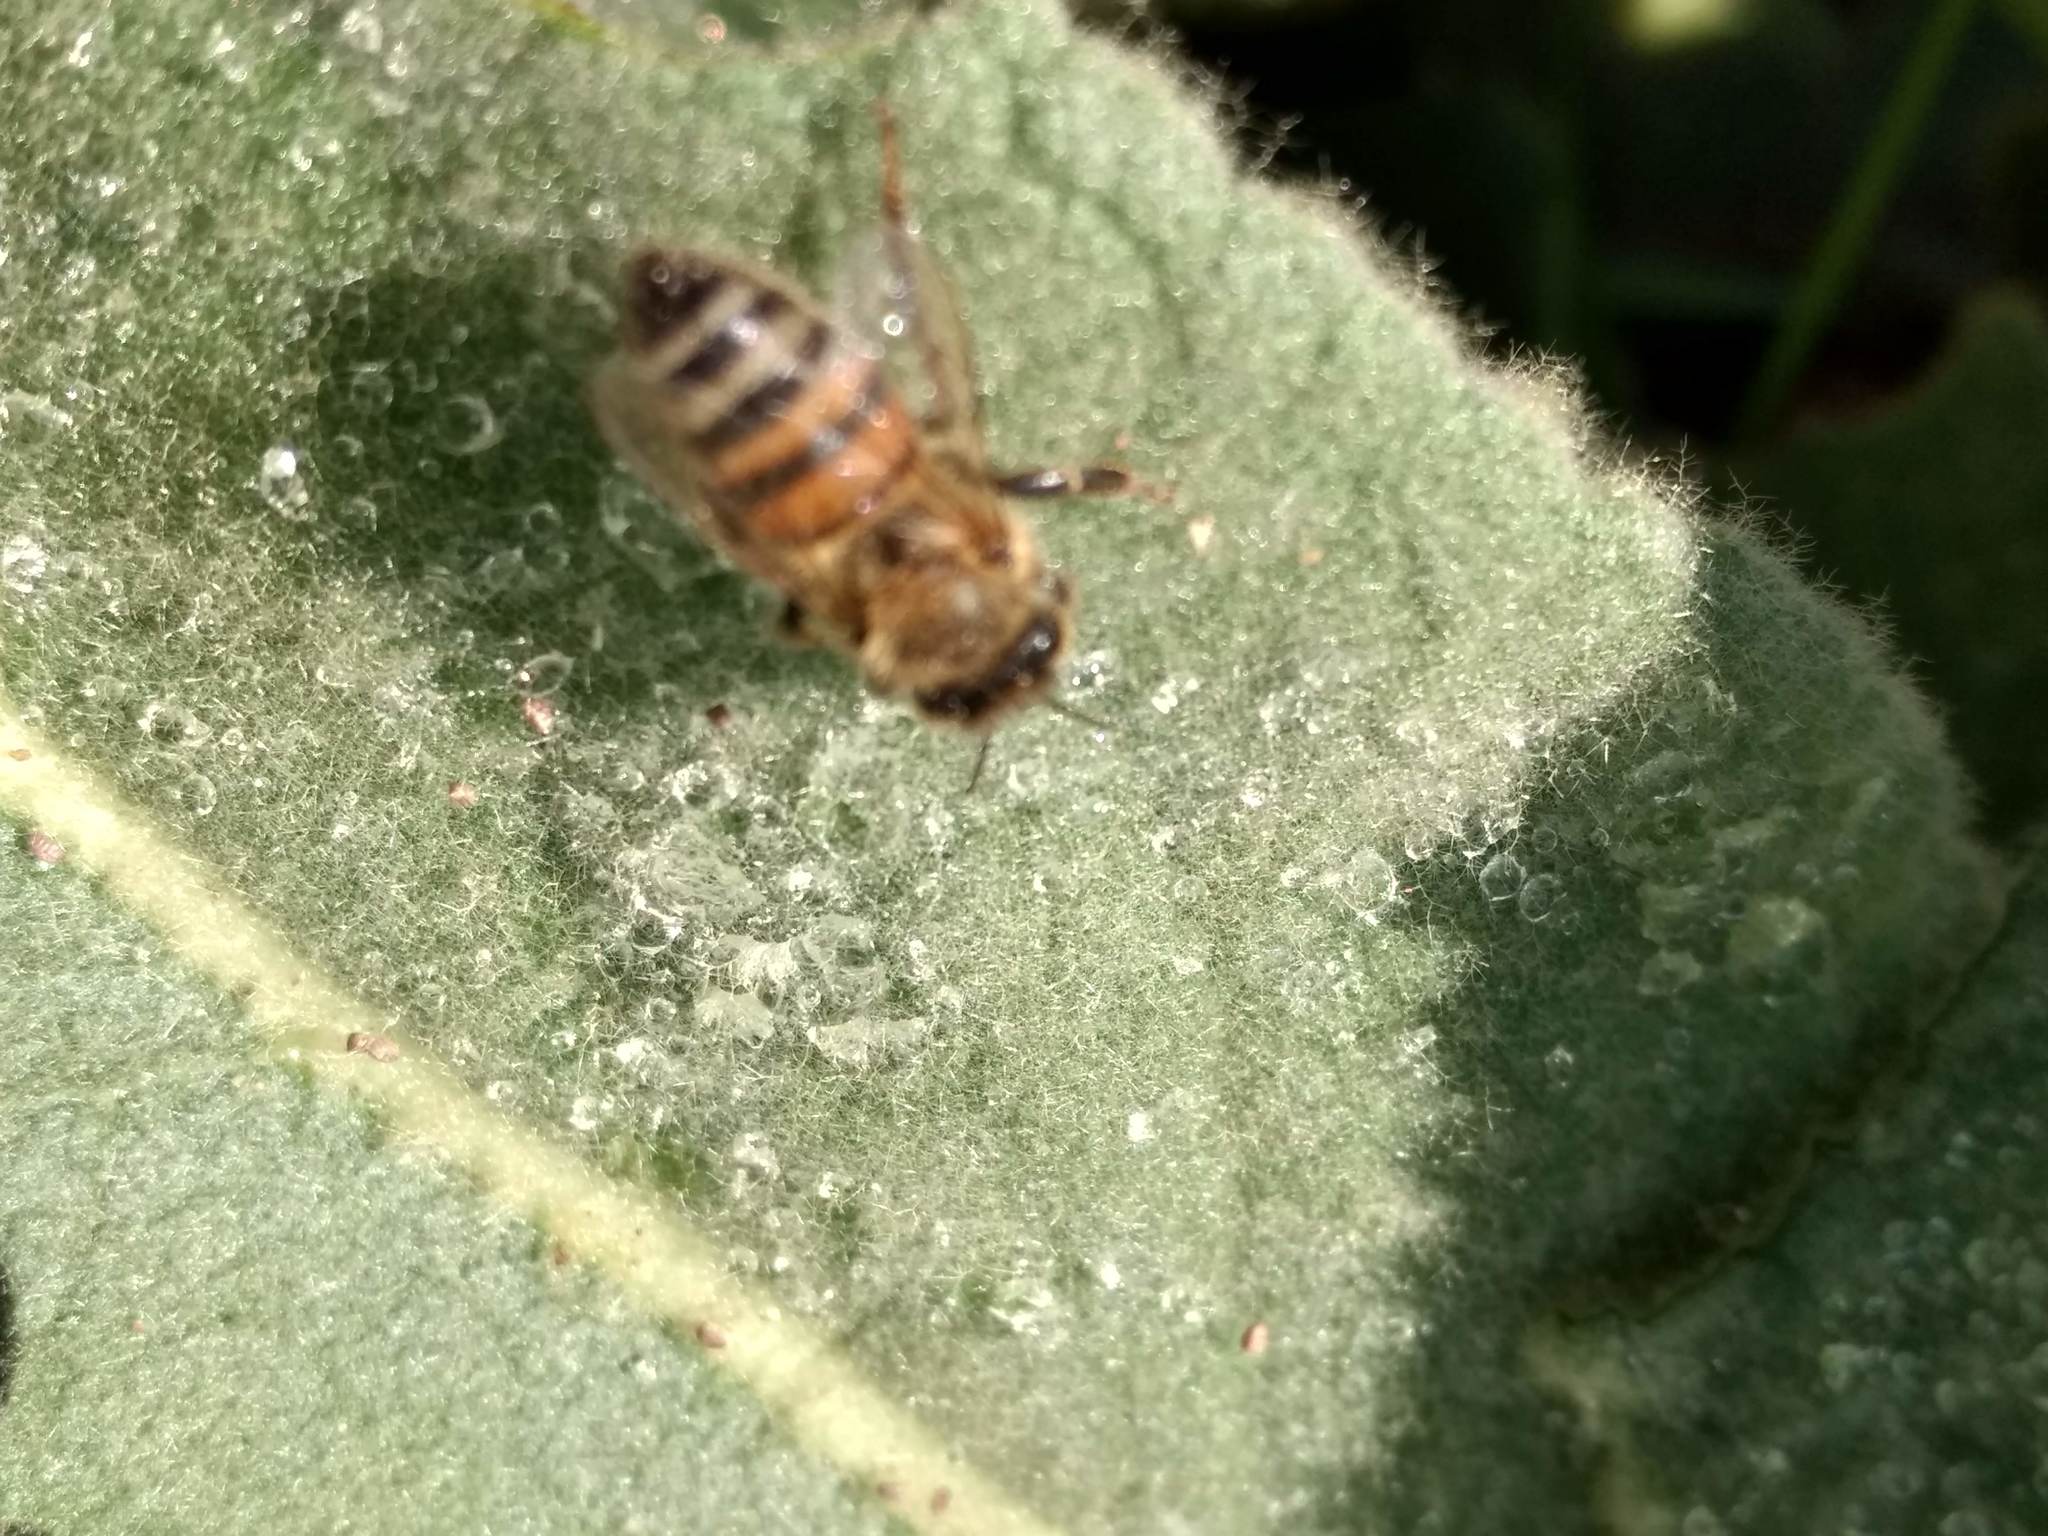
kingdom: Animalia
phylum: Arthropoda
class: Insecta
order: Hymenoptera
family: Apidae
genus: Apis
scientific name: Apis mellifera
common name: Honey bee
